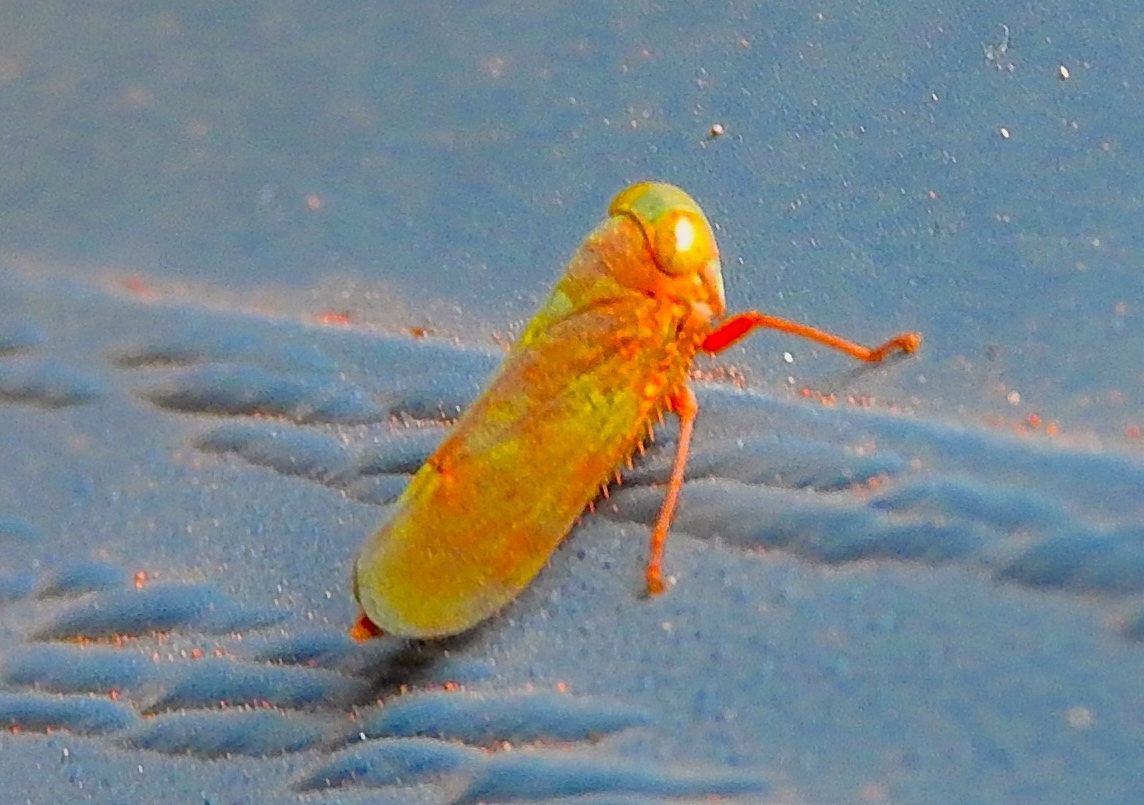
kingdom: Animalia
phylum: Arthropoda
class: Insecta
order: Hemiptera
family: Cicadellidae
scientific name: Cicadellidae
